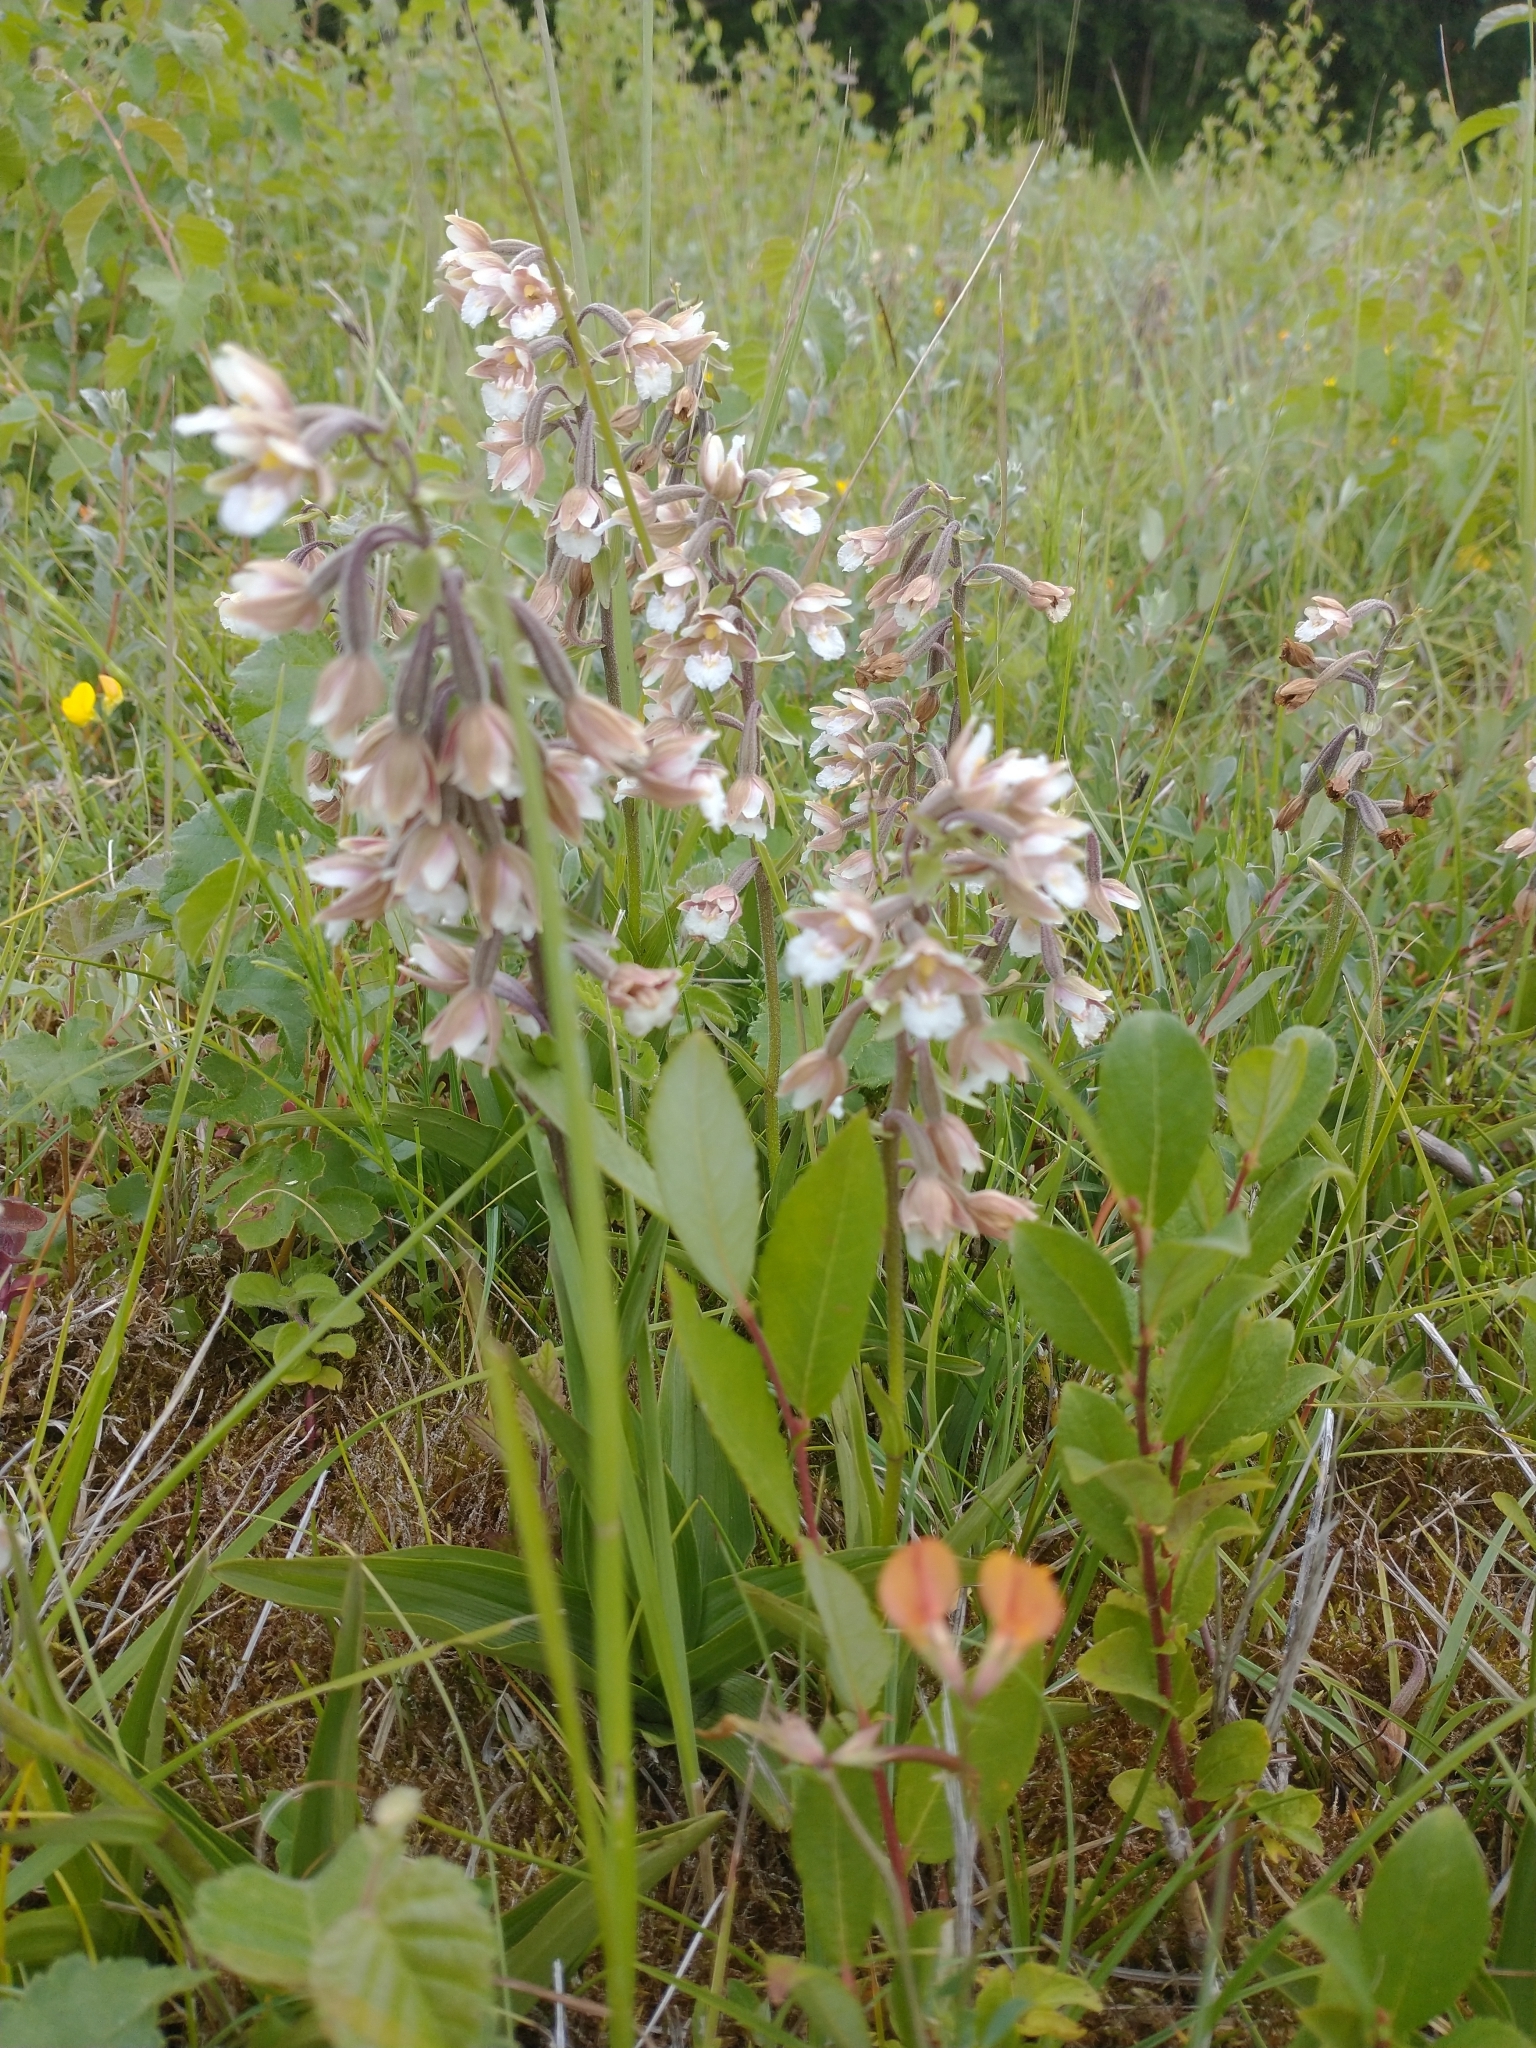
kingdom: Plantae
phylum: Tracheophyta
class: Liliopsida
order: Asparagales
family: Orchidaceae
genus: Epipactis
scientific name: Epipactis palustris
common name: Marsh helleborine
